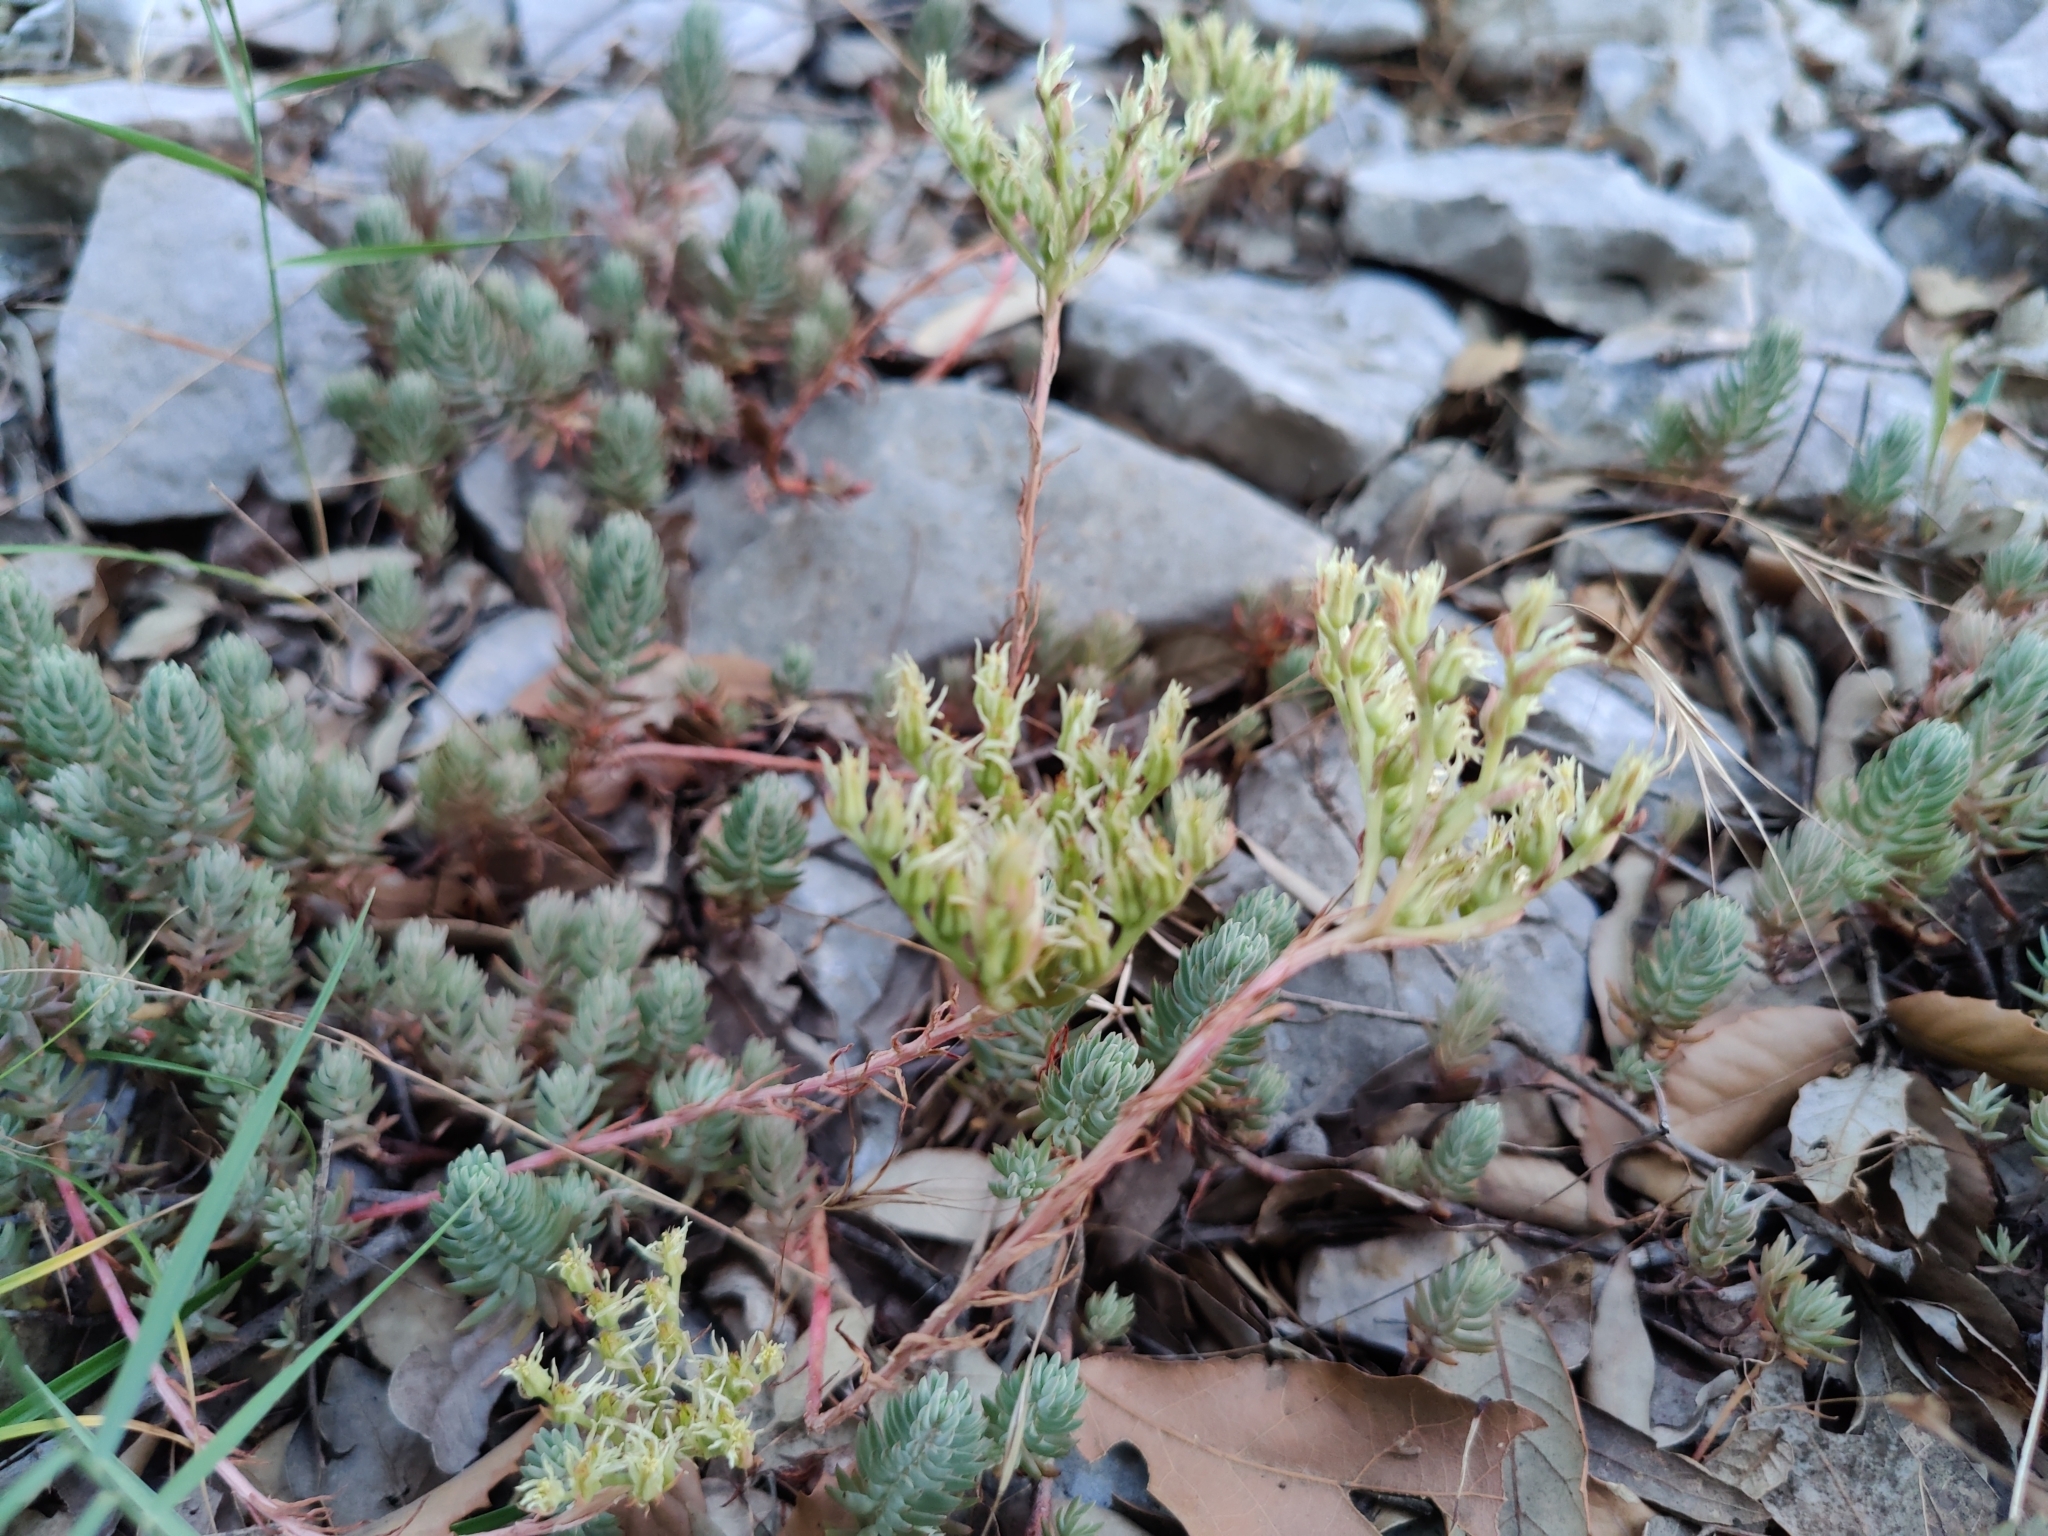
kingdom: Plantae
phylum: Tracheophyta
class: Magnoliopsida
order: Saxifragales
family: Crassulaceae
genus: Petrosedum
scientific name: Petrosedum ochroleucum
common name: European stonecrop
